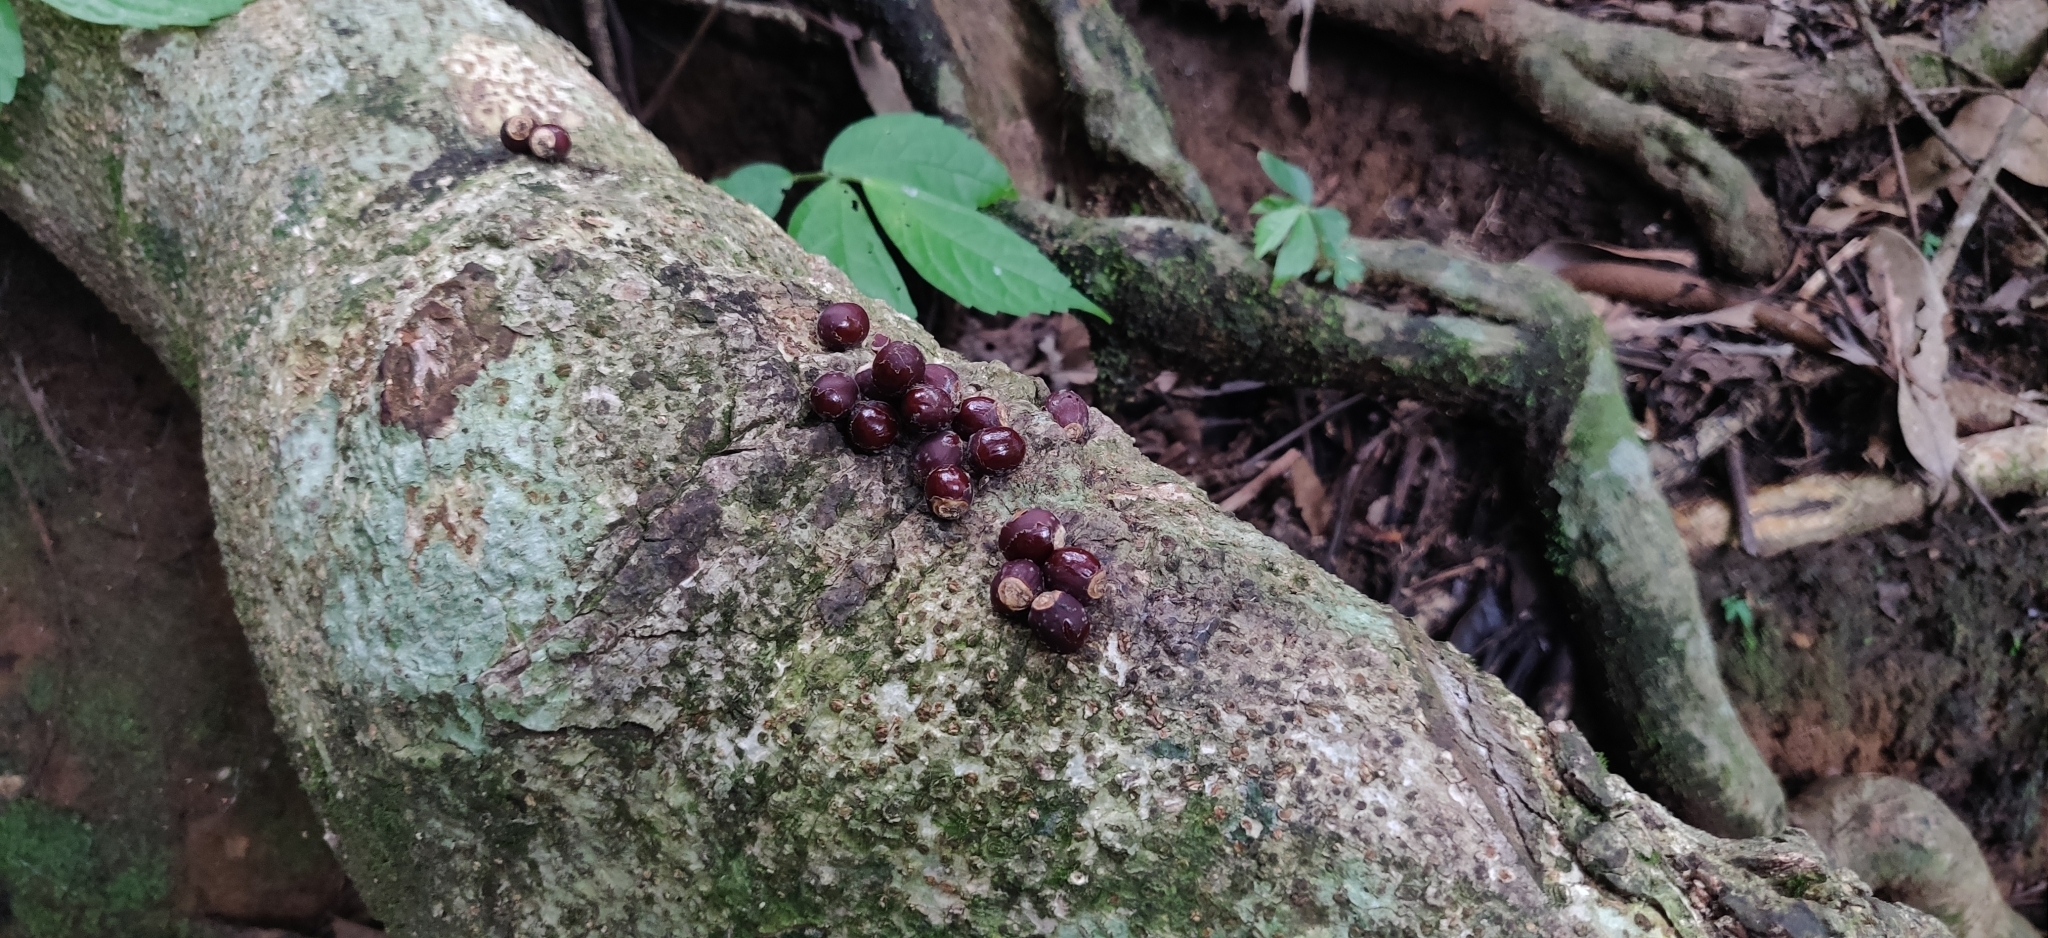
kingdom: Animalia
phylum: Chordata
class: Mammalia
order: Carnivora
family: Viverridae
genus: Paradoxurus
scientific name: Paradoxurus jerdoni
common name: Jerdon's palm civet
